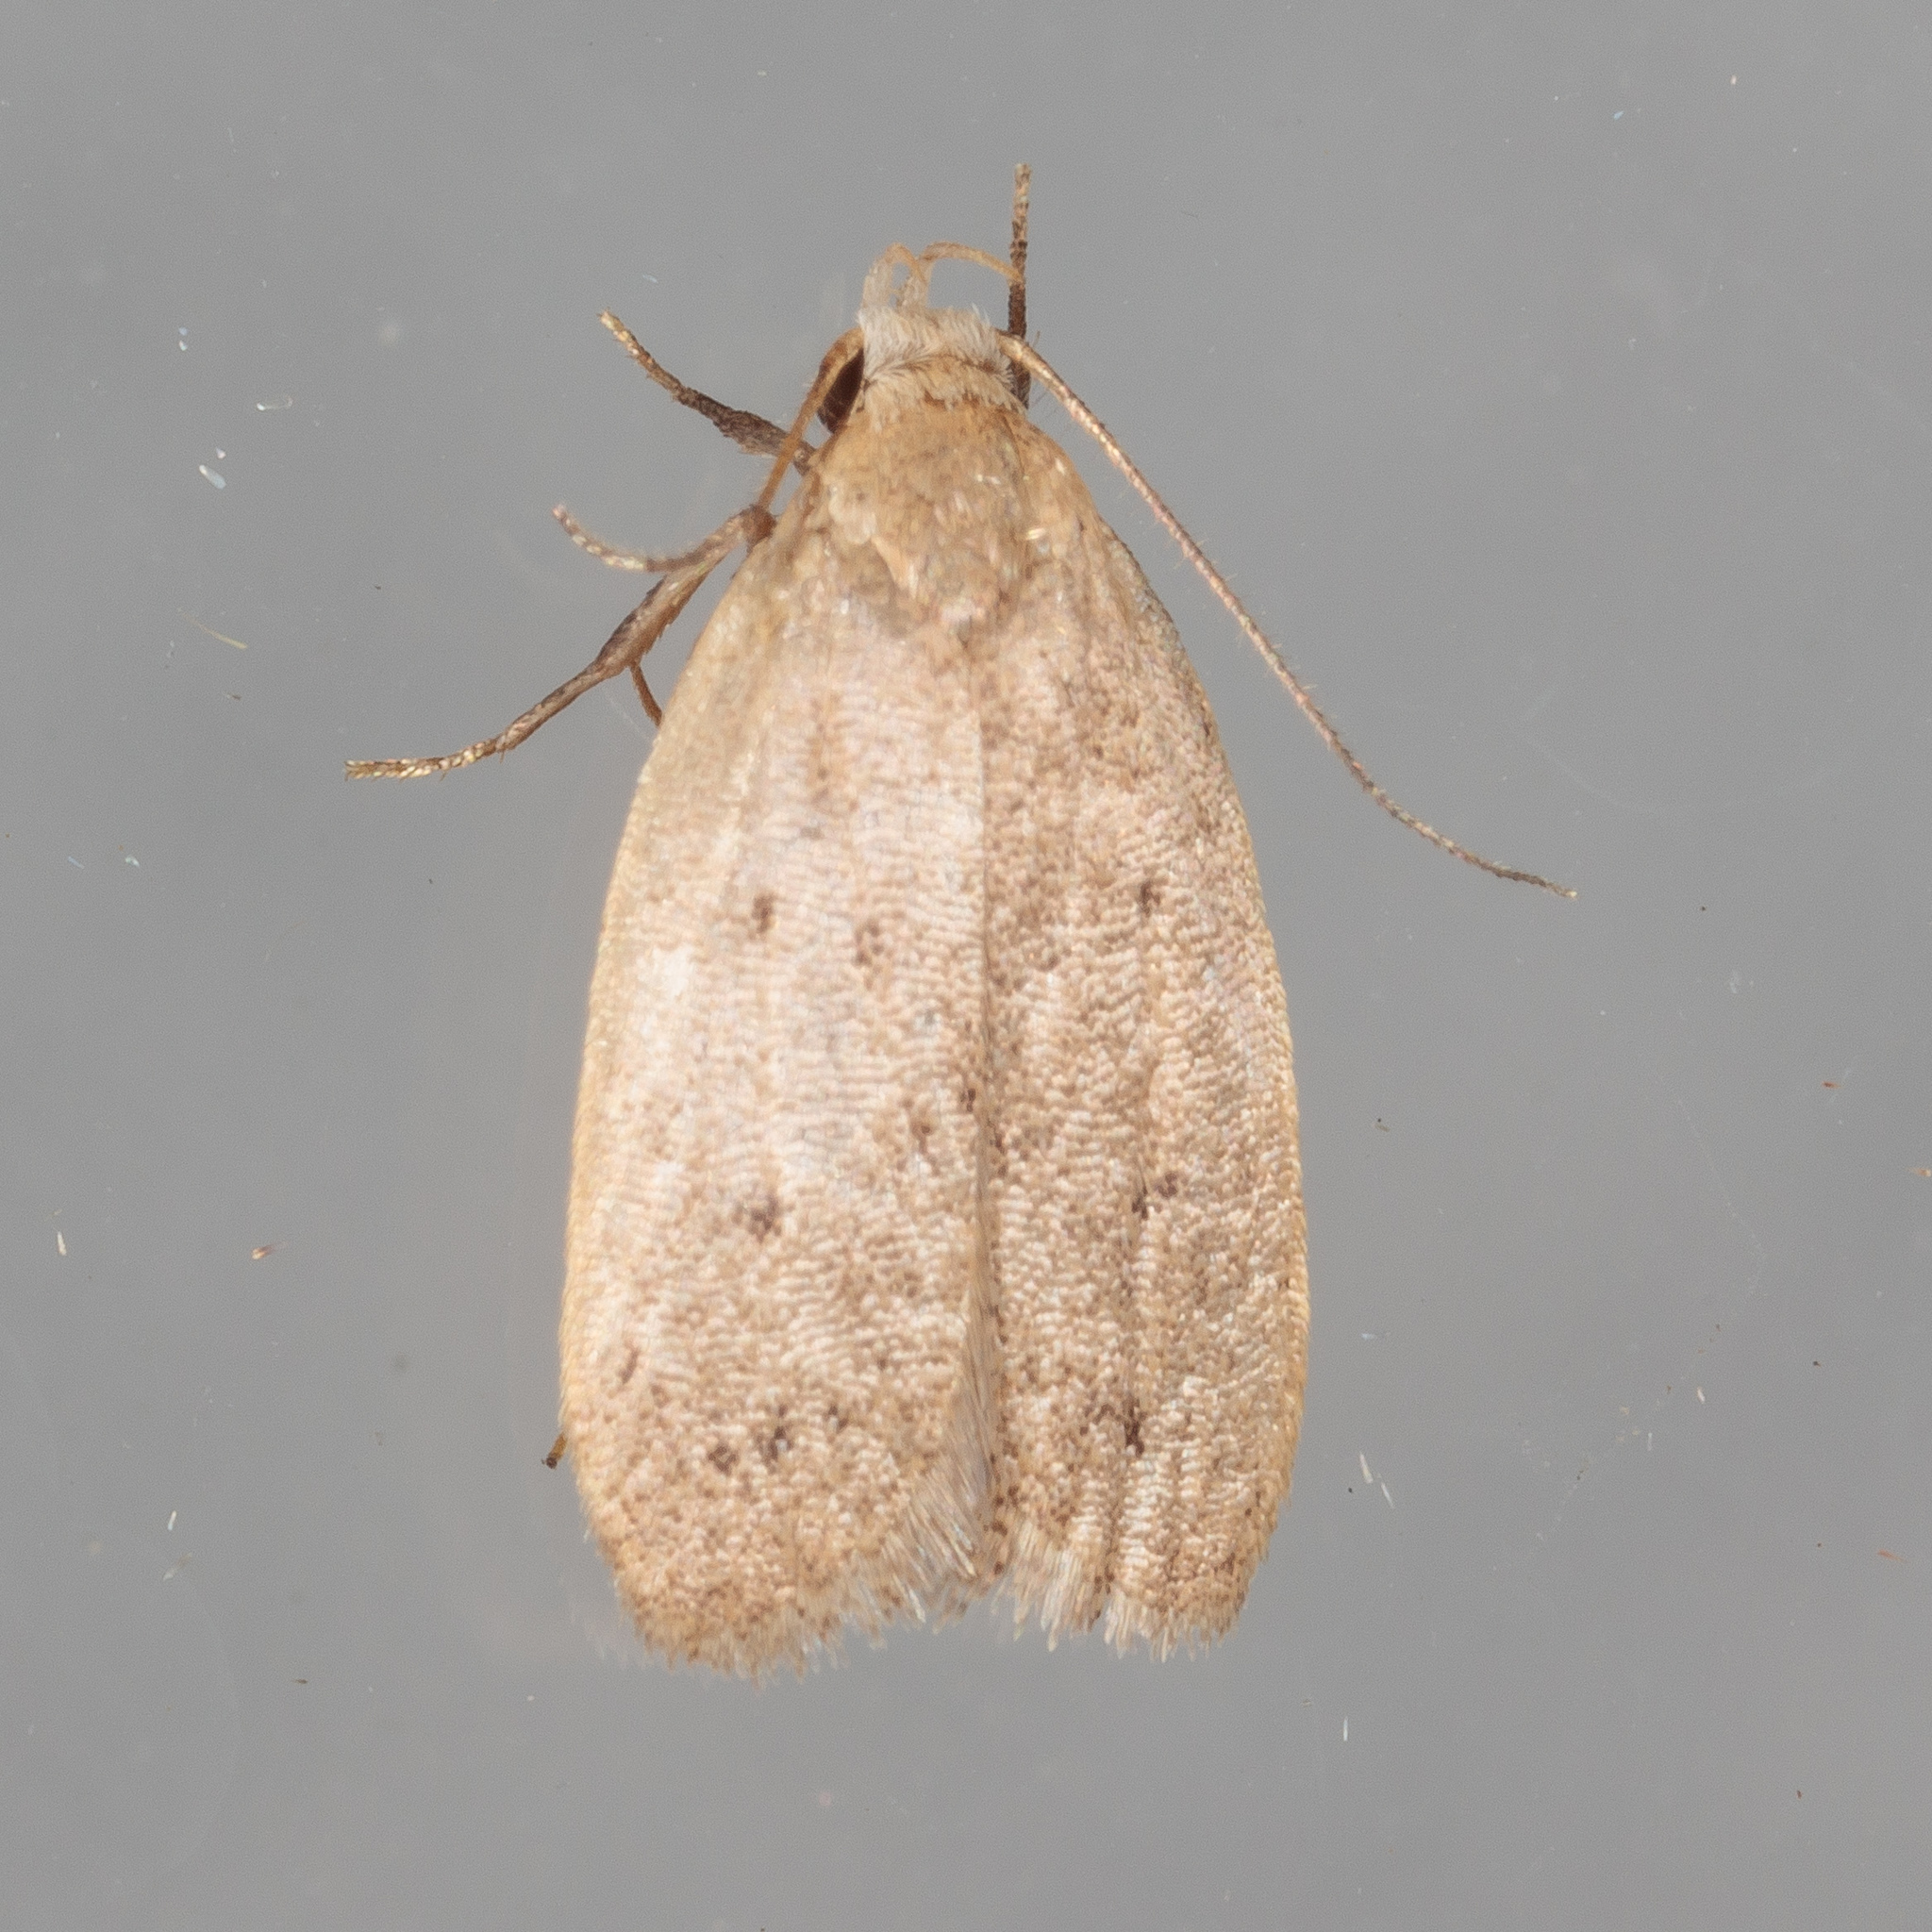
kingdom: Animalia
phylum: Arthropoda
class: Insecta
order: Lepidoptera
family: Oecophoridae
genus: Inga
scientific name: Inga obscuromaculella
